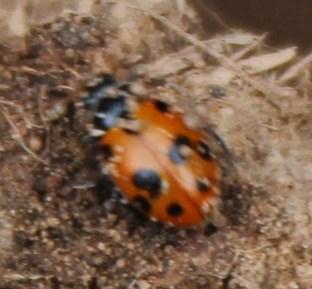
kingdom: Animalia
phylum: Arthropoda
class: Insecta
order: Coleoptera
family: Coccinellidae
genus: Hippodamia
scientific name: Hippodamia variegata
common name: Ladybird beetle
